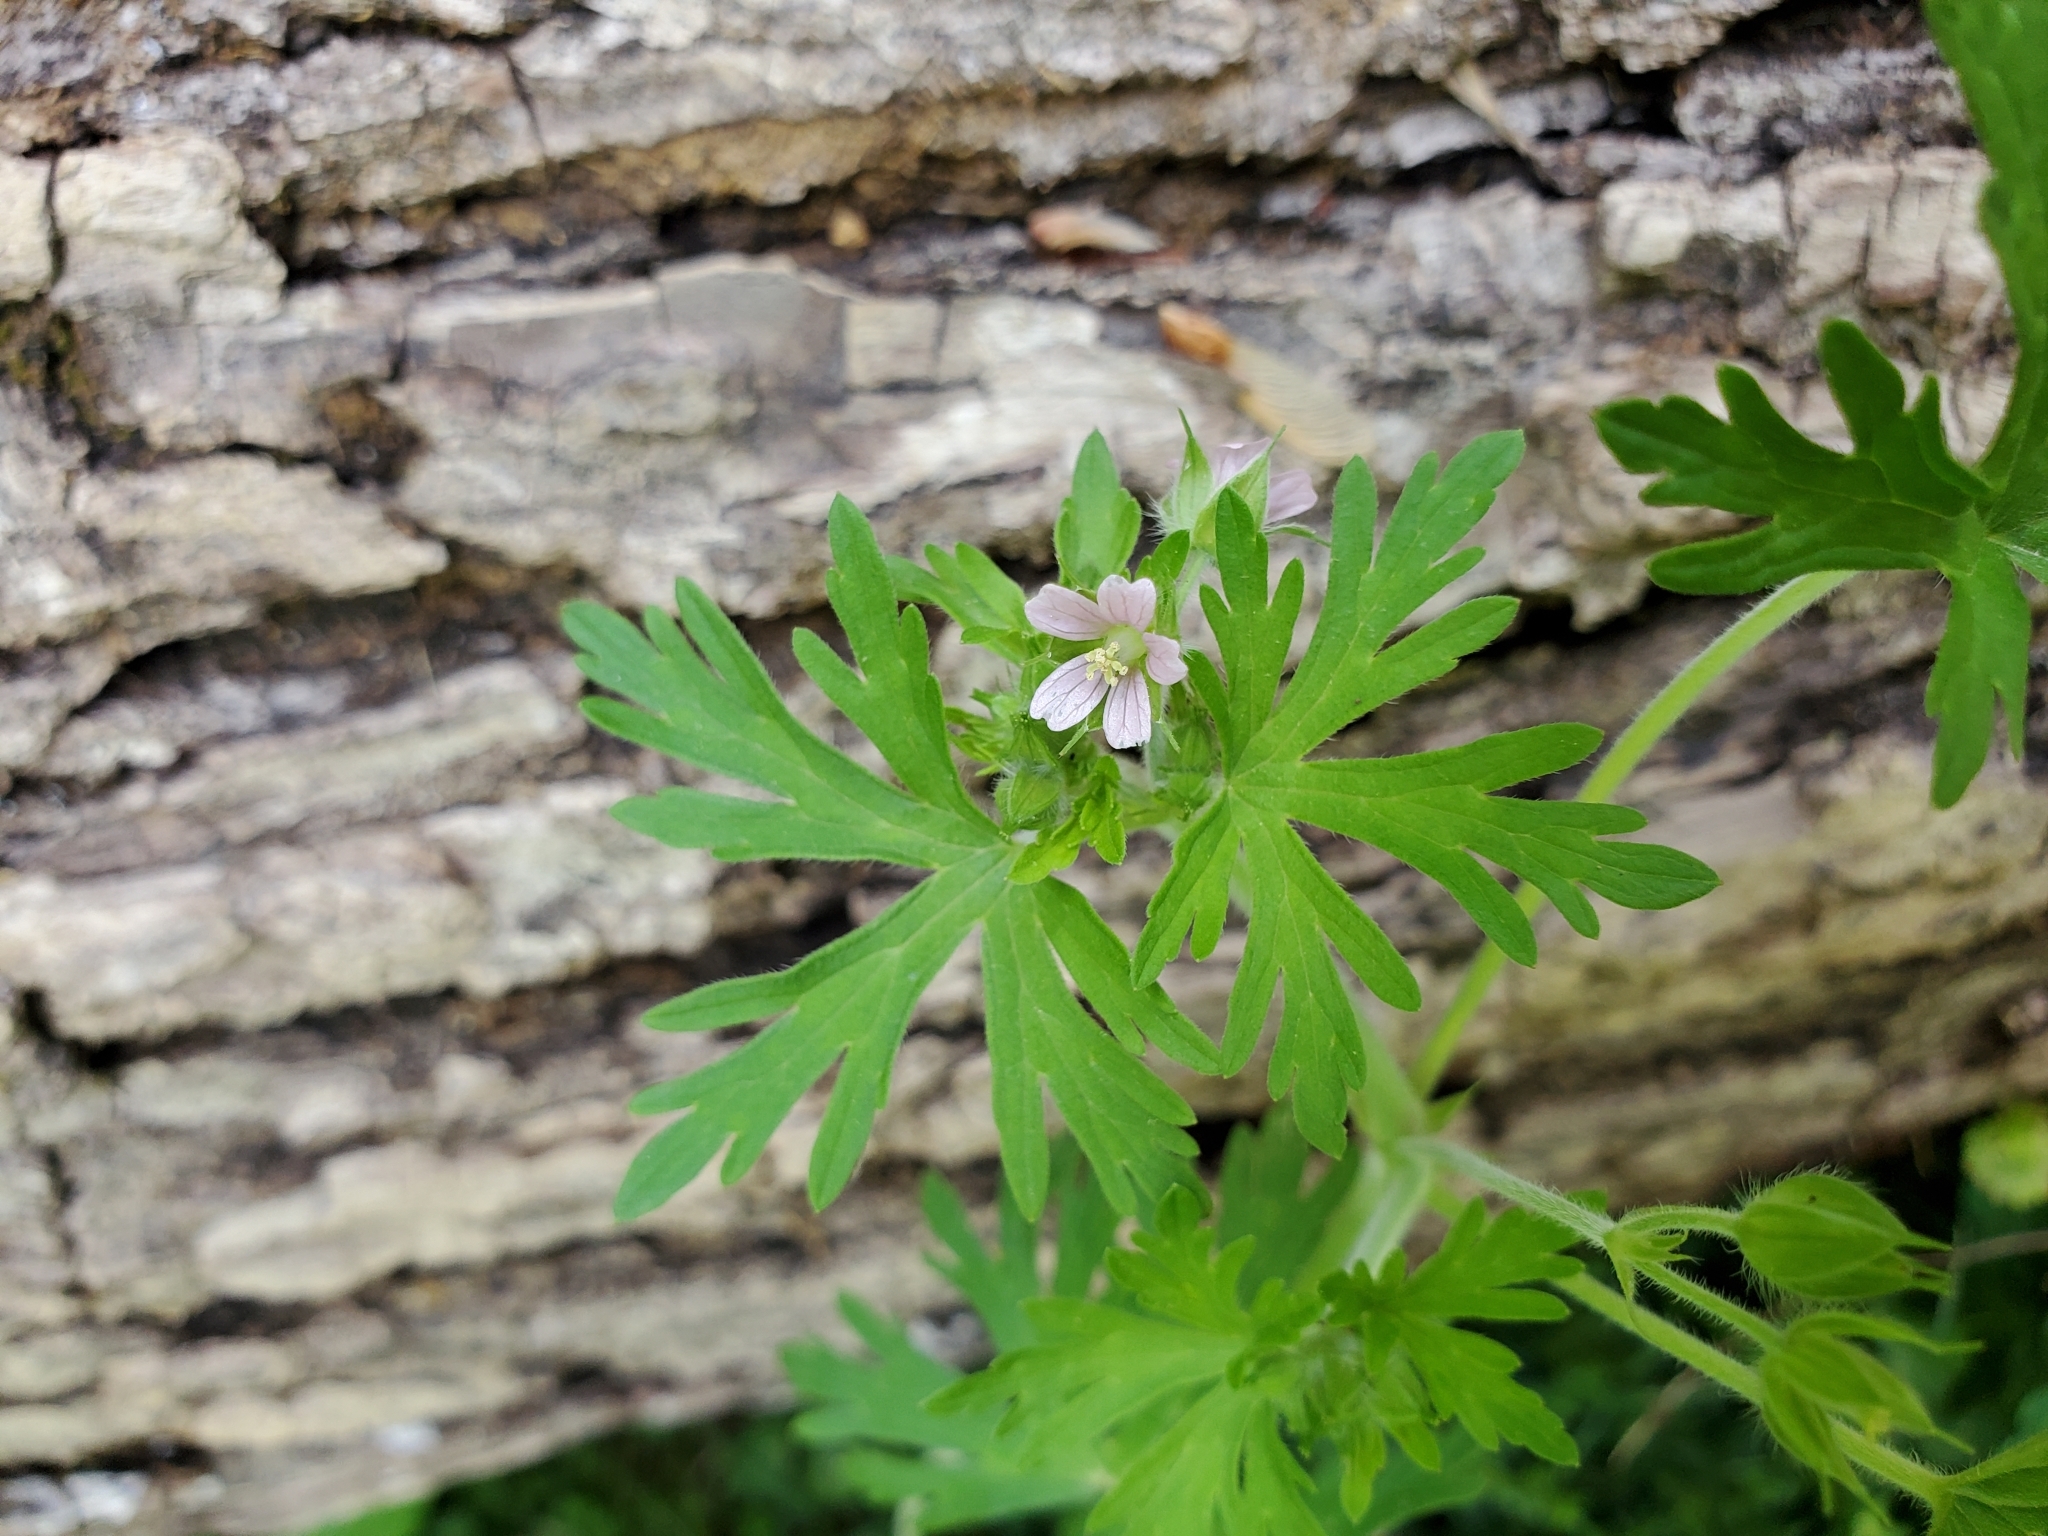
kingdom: Plantae
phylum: Tracheophyta
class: Magnoliopsida
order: Geraniales
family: Geraniaceae
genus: Geranium
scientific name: Geranium carolinianum
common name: Carolina crane's-bill
